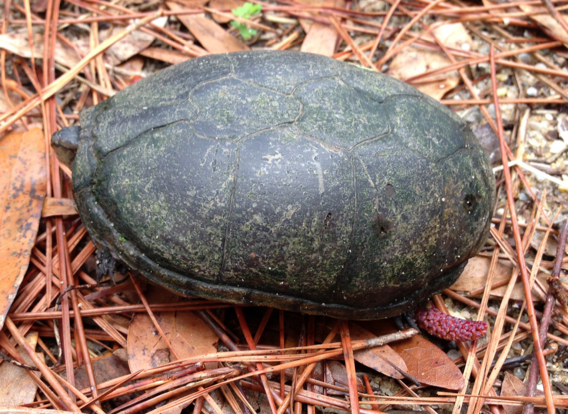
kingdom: Animalia
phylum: Chordata
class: Testudines
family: Kinosternidae
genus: Kinosternon
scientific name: Kinosternon subrubrum
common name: Eastern mud turtle
